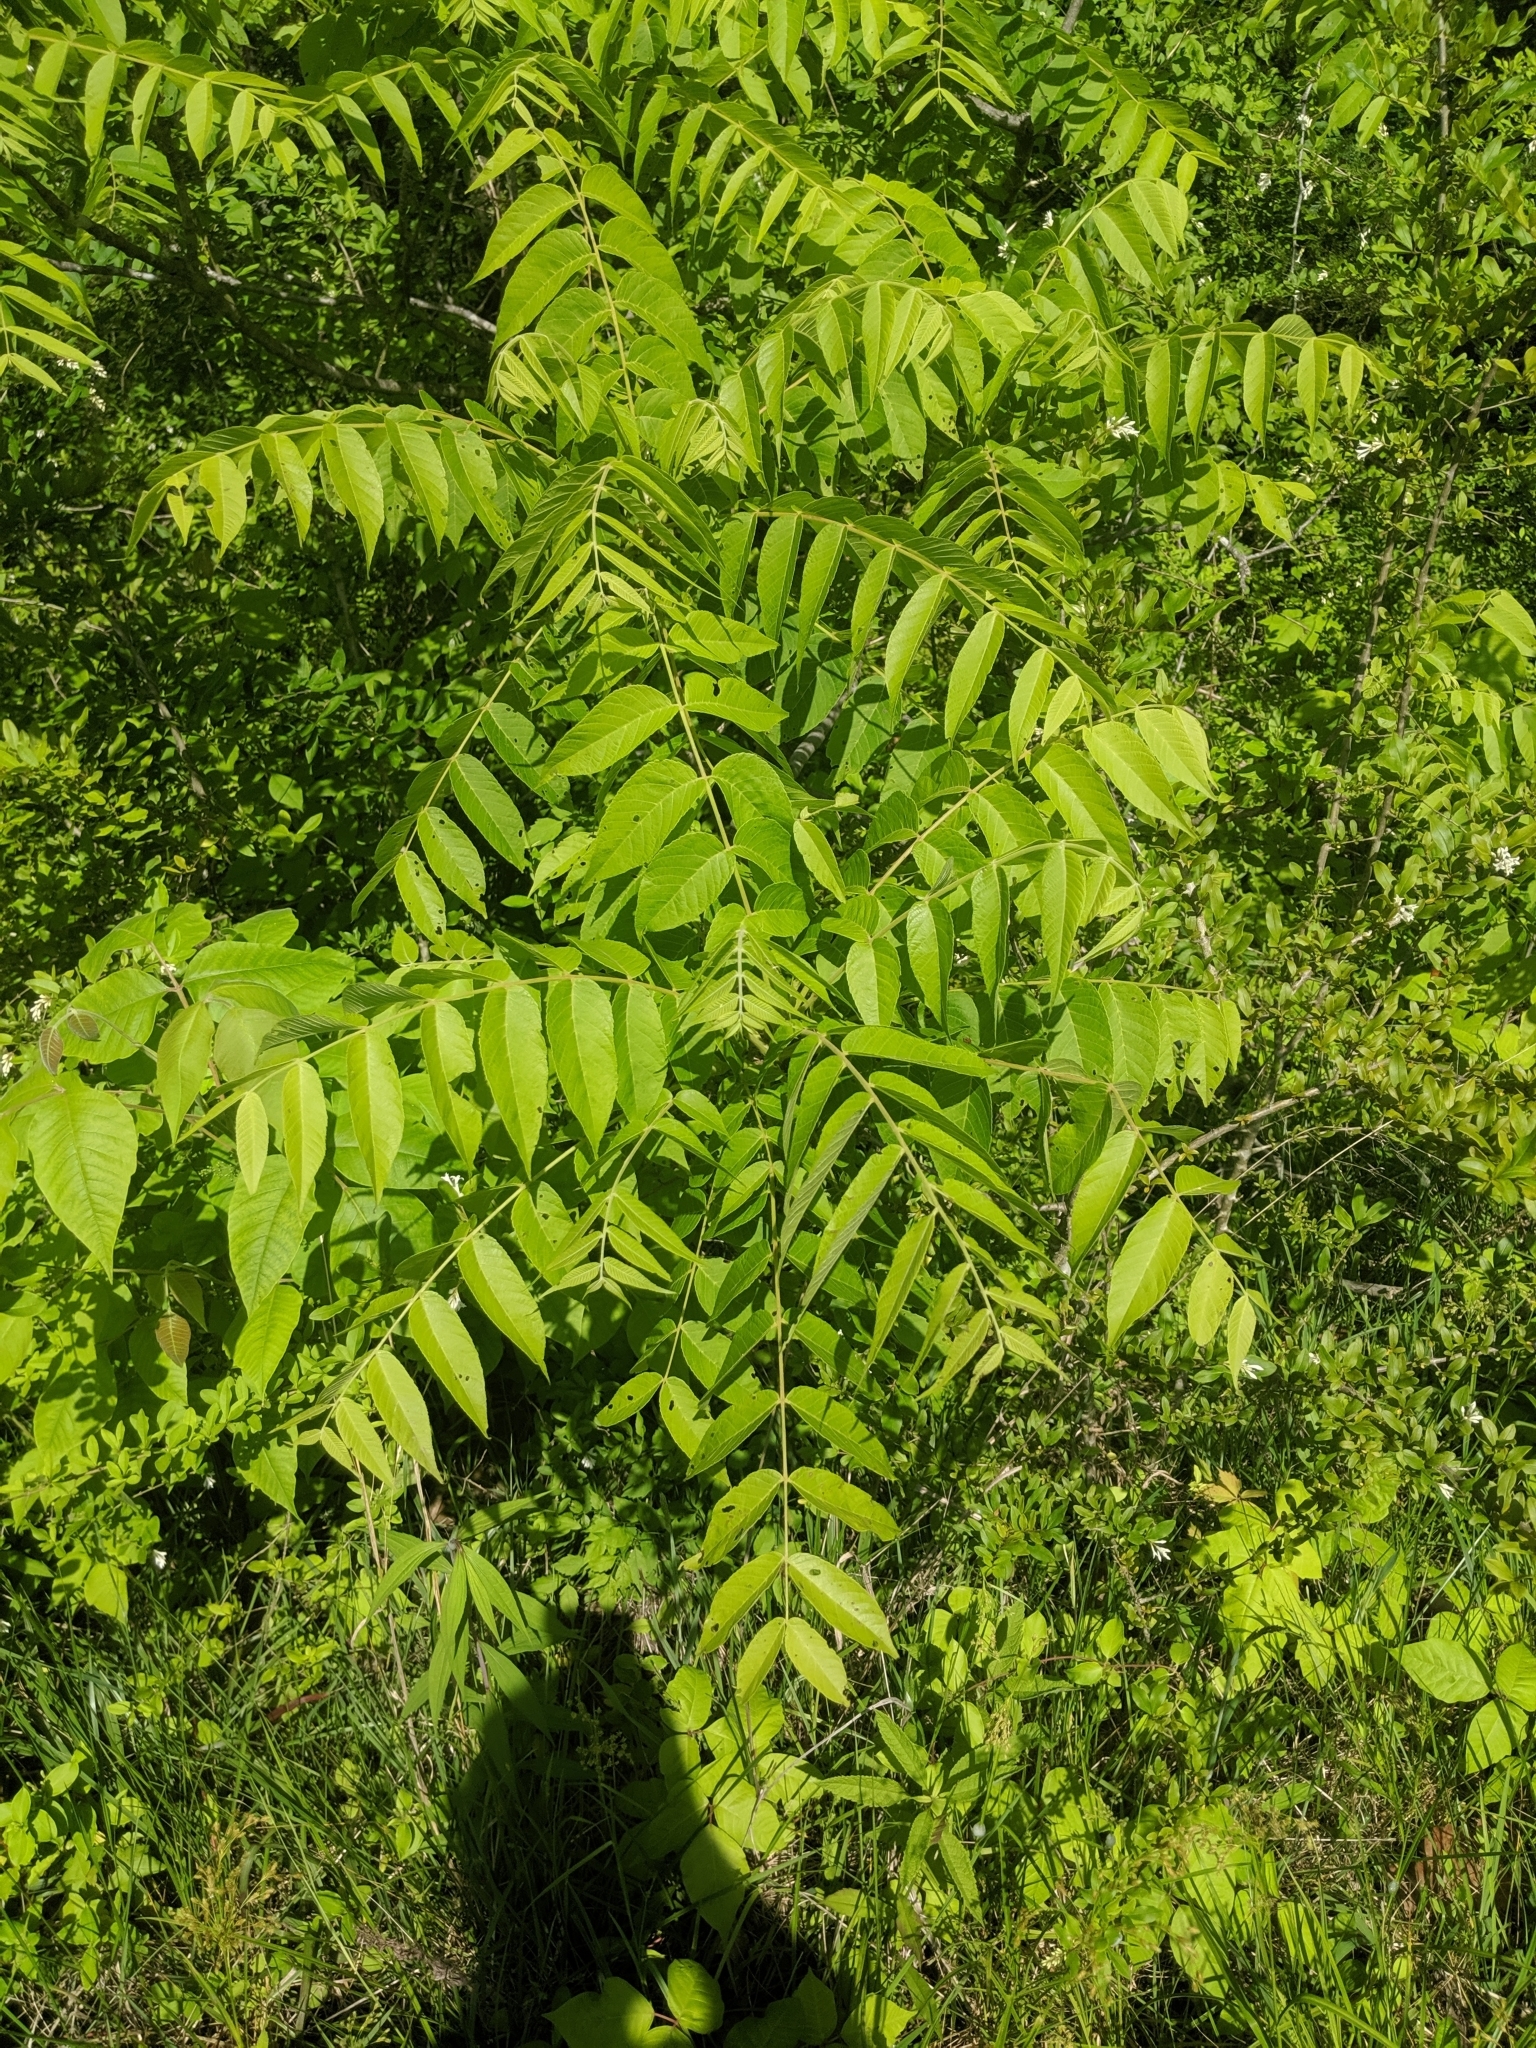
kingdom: Plantae
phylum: Tracheophyta
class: Magnoliopsida
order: Fagales
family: Juglandaceae
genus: Juglans
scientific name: Juglans nigra
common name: Black walnut
